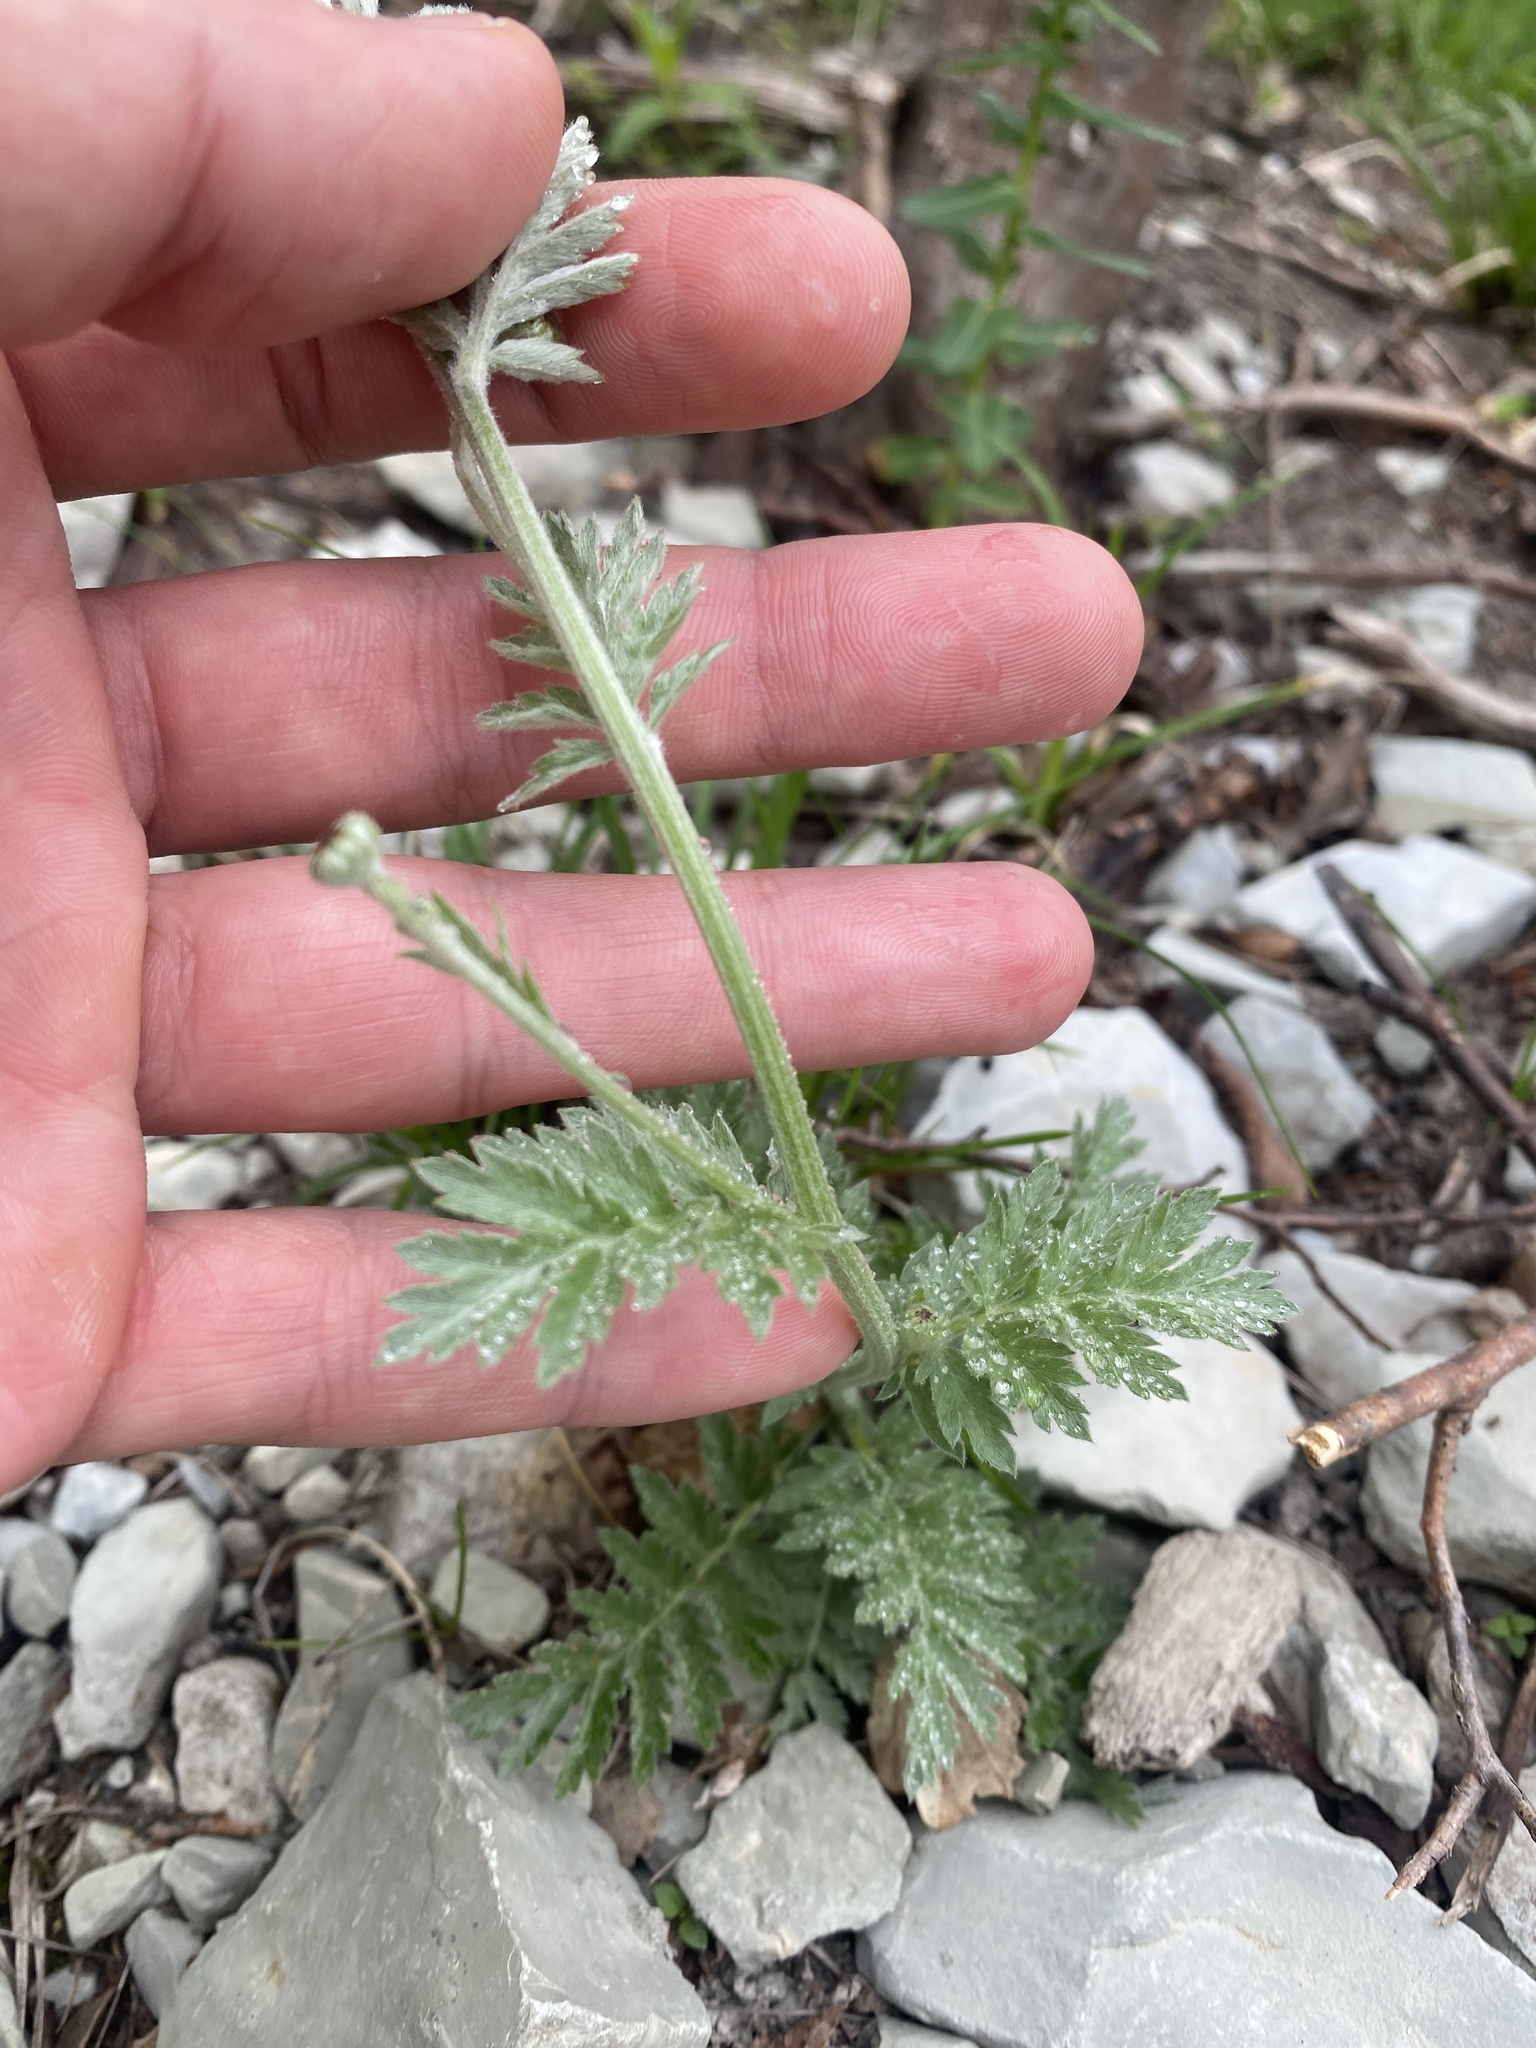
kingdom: Plantae
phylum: Tracheophyta
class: Magnoliopsida
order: Asterales
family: Asteraceae
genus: Tanacetum
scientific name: Tanacetum poteriifolium
